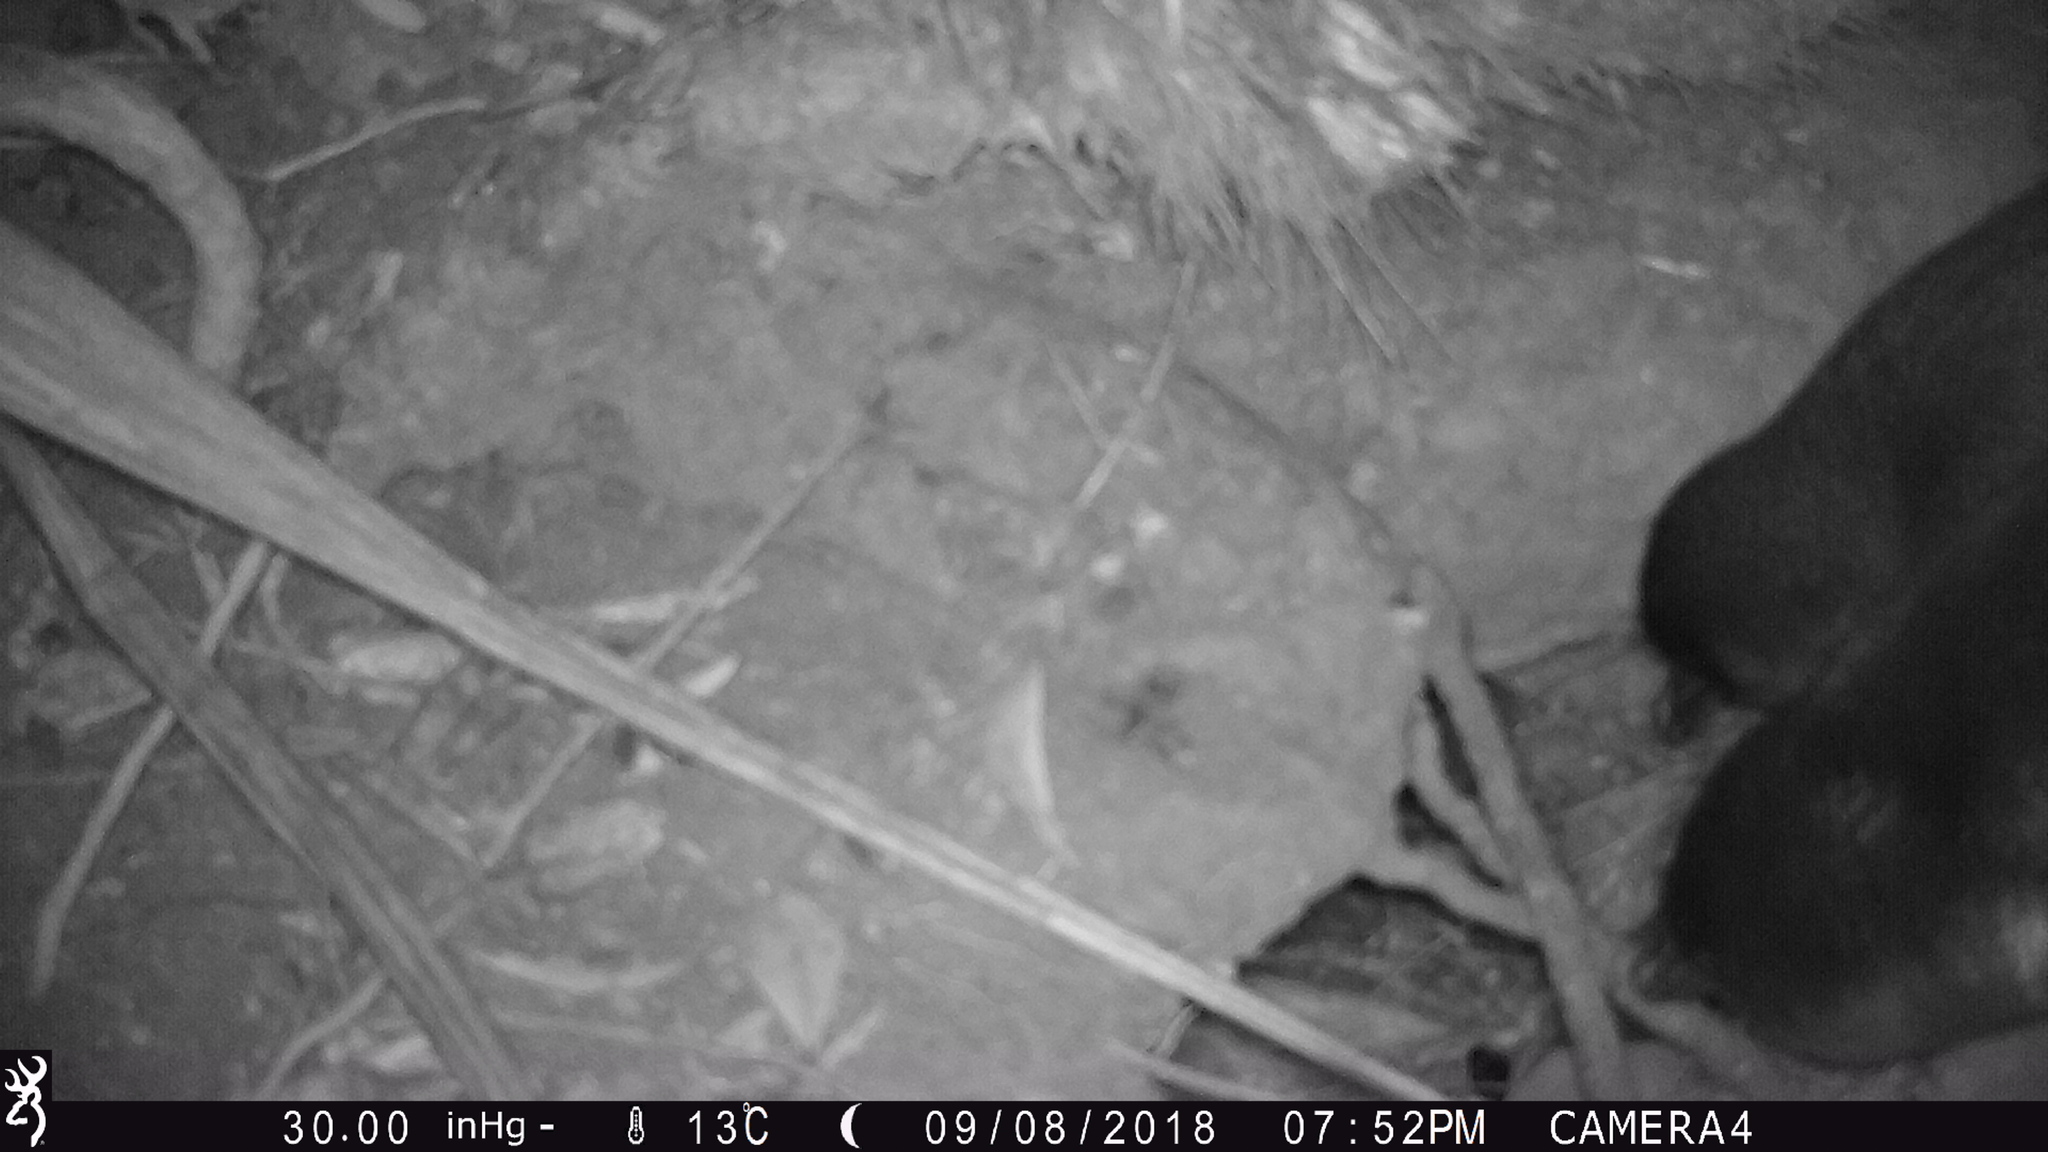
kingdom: Animalia
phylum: Chordata
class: Aves
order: Sphenisciformes
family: Spheniscidae
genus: Eudyptula
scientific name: Eudyptula minor
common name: Little penguin
